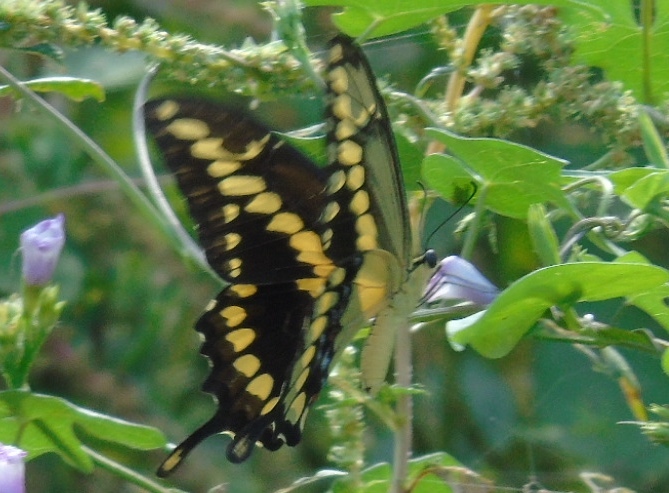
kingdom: Animalia
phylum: Arthropoda
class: Insecta
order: Lepidoptera
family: Papilionidae
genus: Papilio
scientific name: Papilio rumiko
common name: Western giant swallowtail
